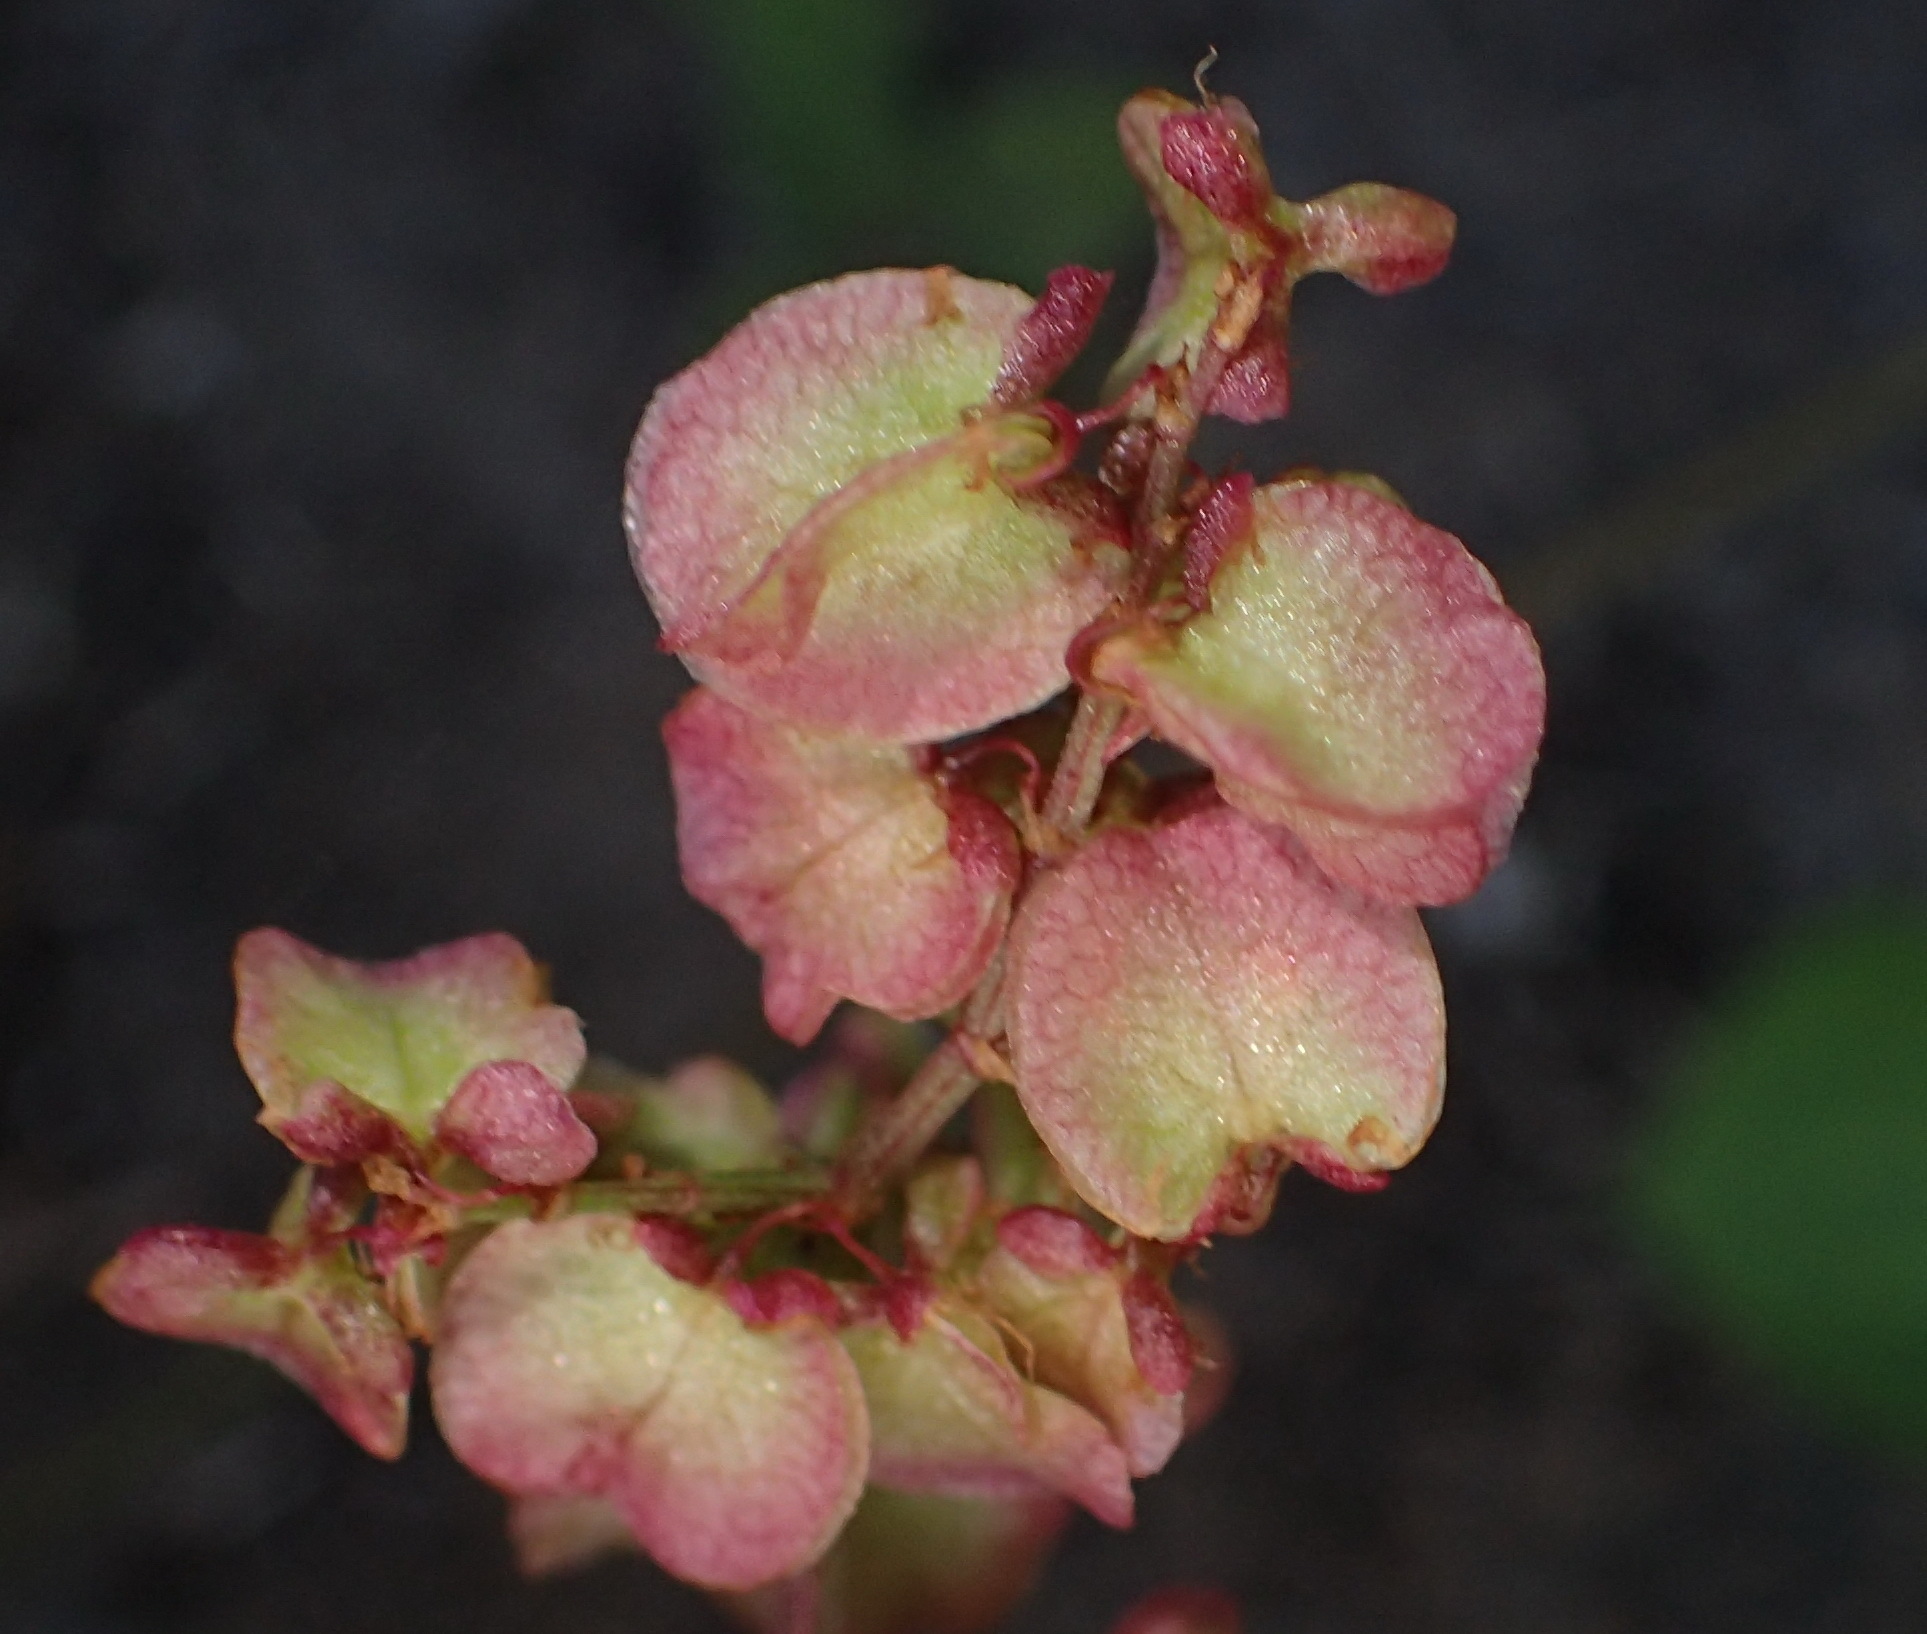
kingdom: Plantae
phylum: Tracheophyta
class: Magnoliopsida
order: Caryophyllales
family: Polygonaceae
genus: Rumex
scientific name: Rumex sagittatus
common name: Climbing dock
